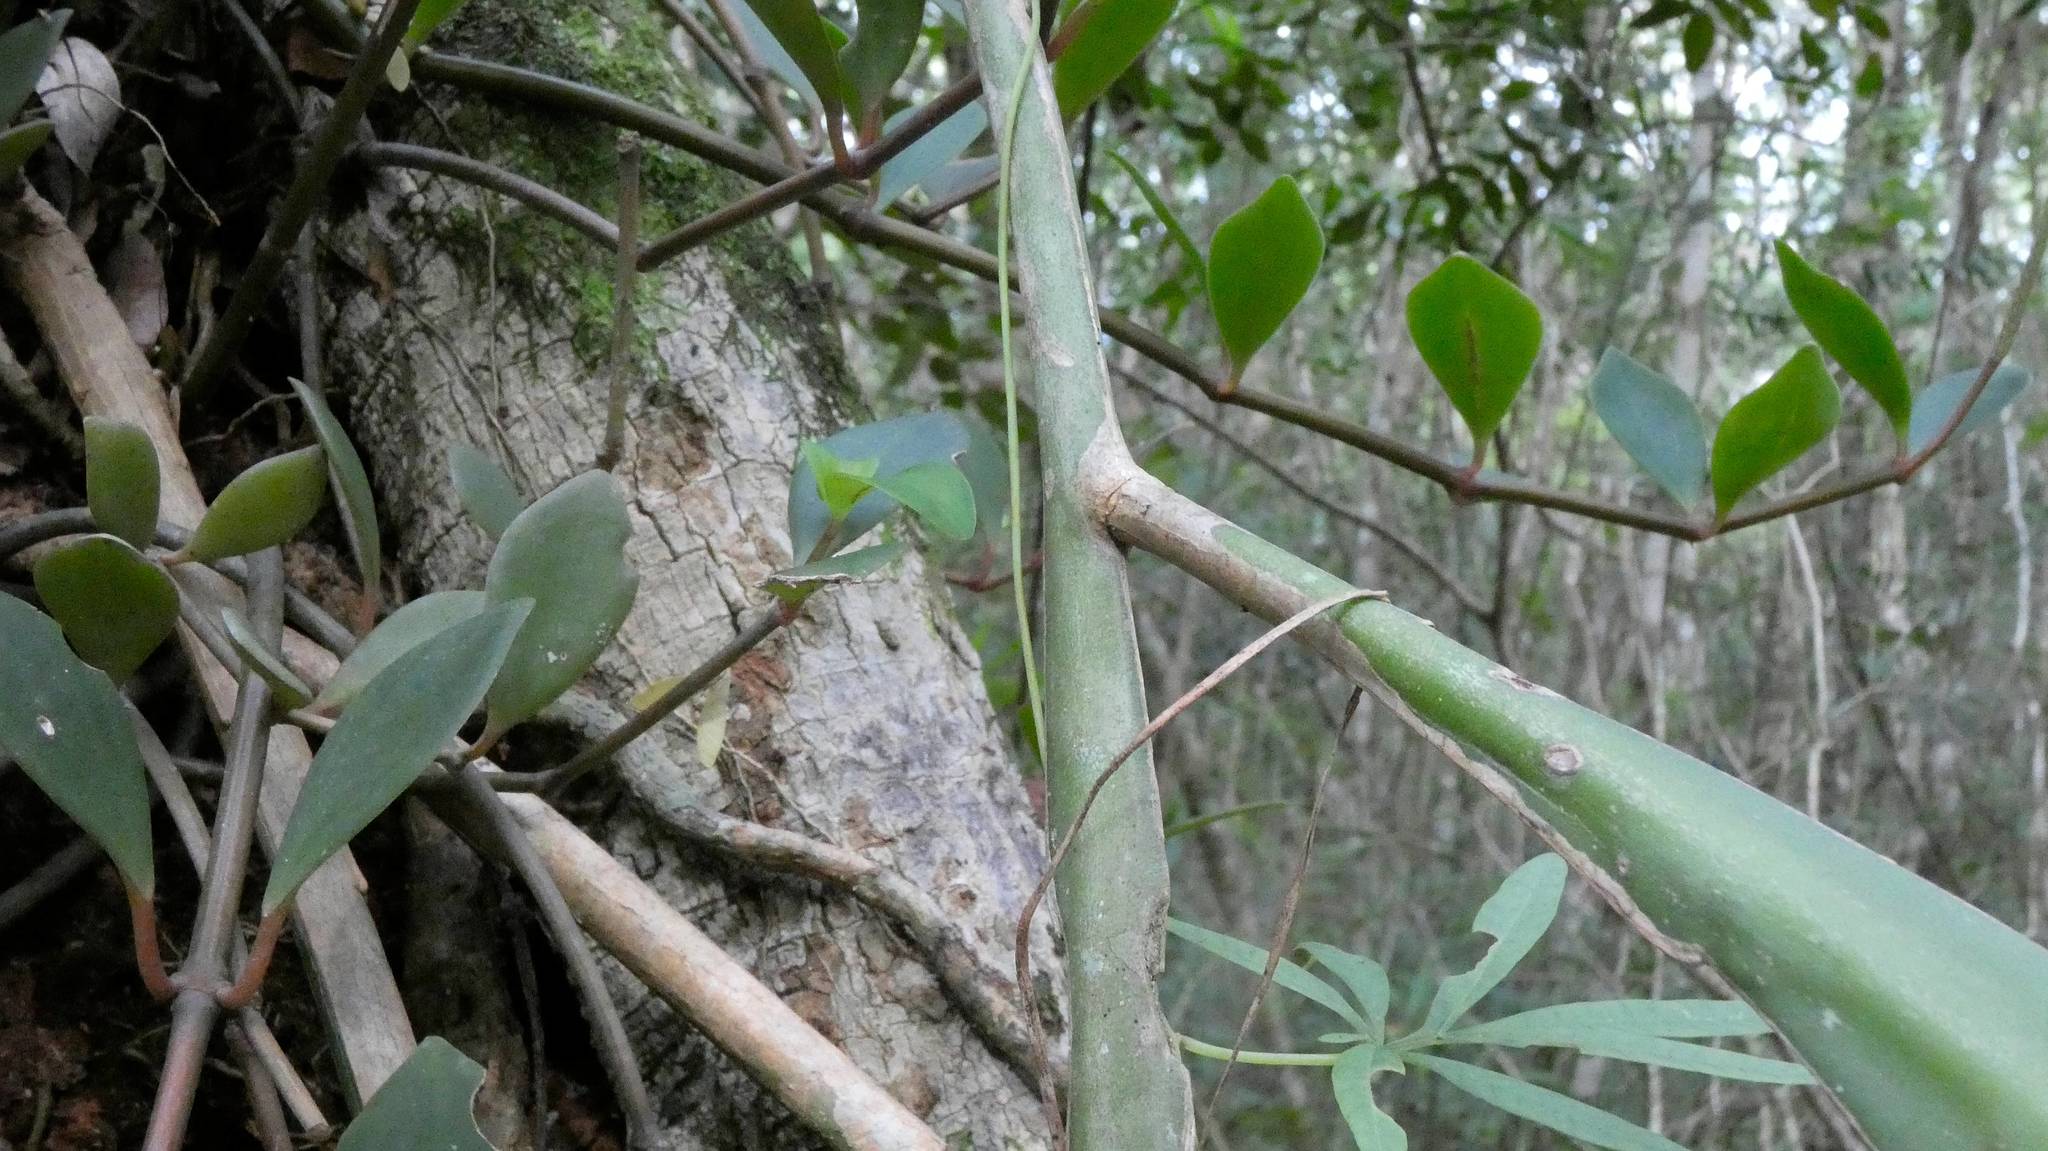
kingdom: Plantae
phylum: Tracheophyta
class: Magnoliopsida
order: Caryophyllales
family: Cactaceae
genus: Epiphyllum
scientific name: Epiphyllum phyllanthus
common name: Climbing cactus
